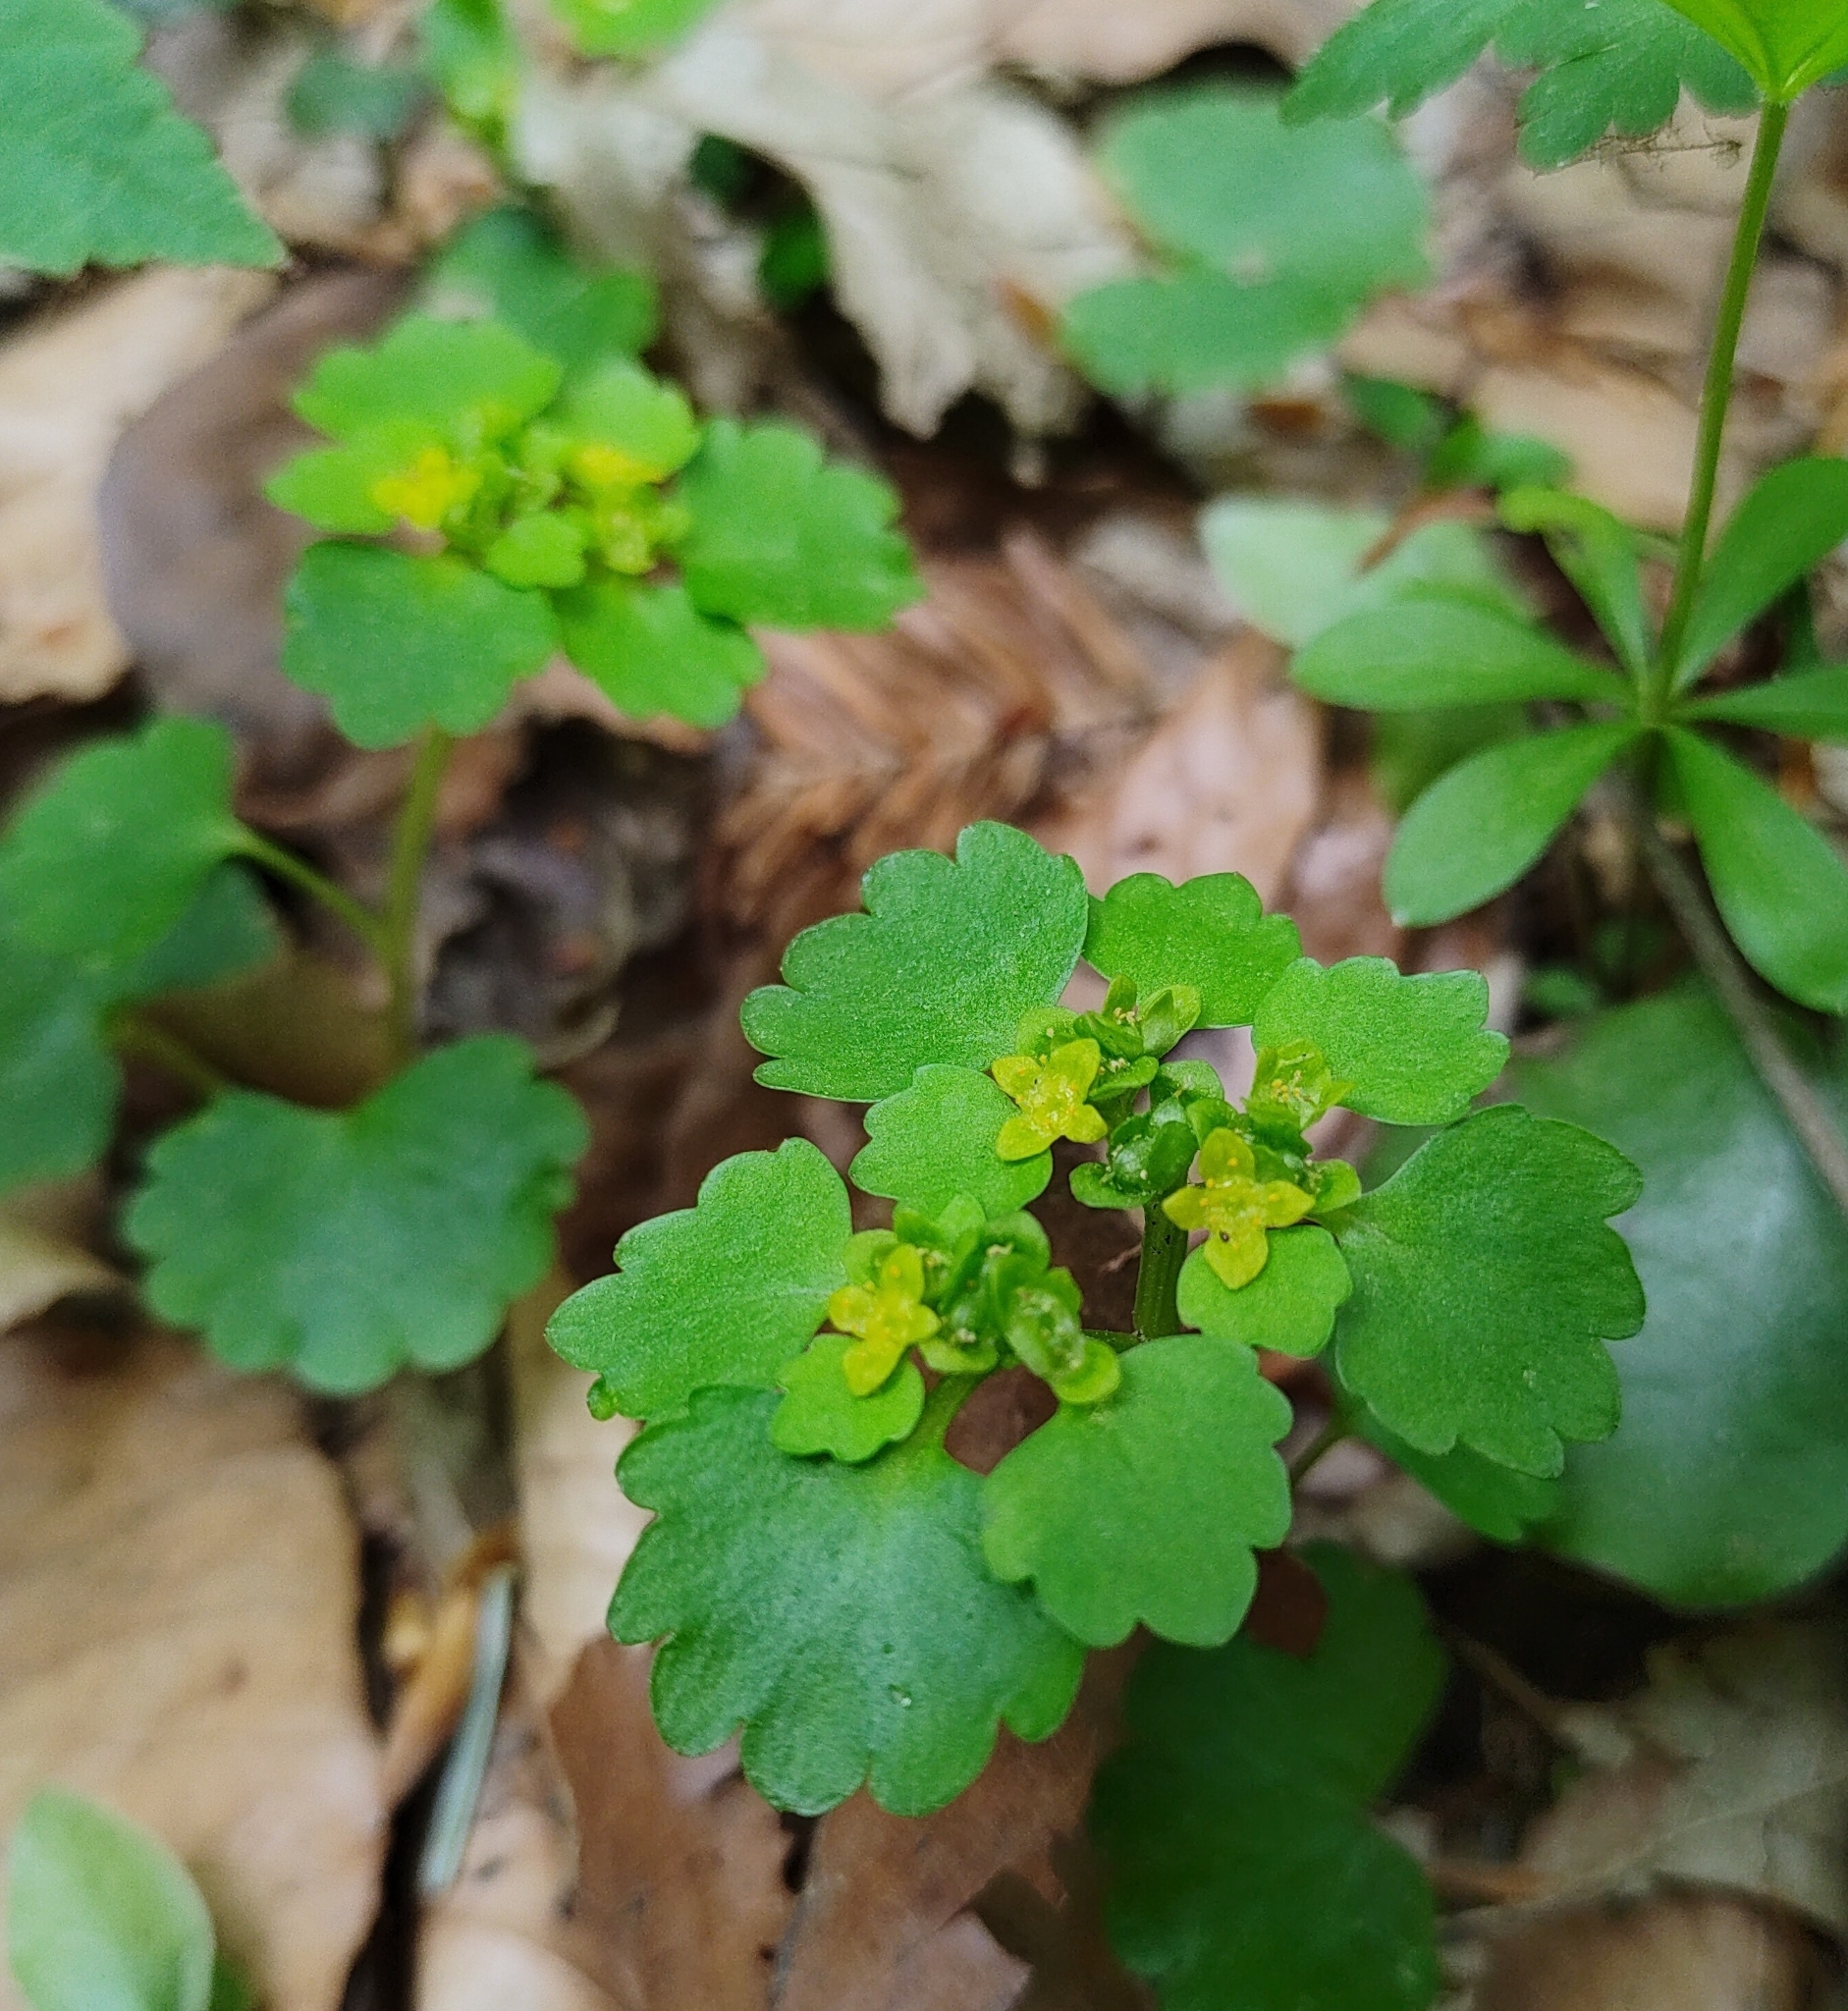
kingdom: Plantae
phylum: Tracheophyta
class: Magnoliopsida
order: Saxifragales
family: Saxifragaceae
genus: Chrysosplenium
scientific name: Chrysosplenium alternifolium
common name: Alternate-leaved golden-saxifrage
